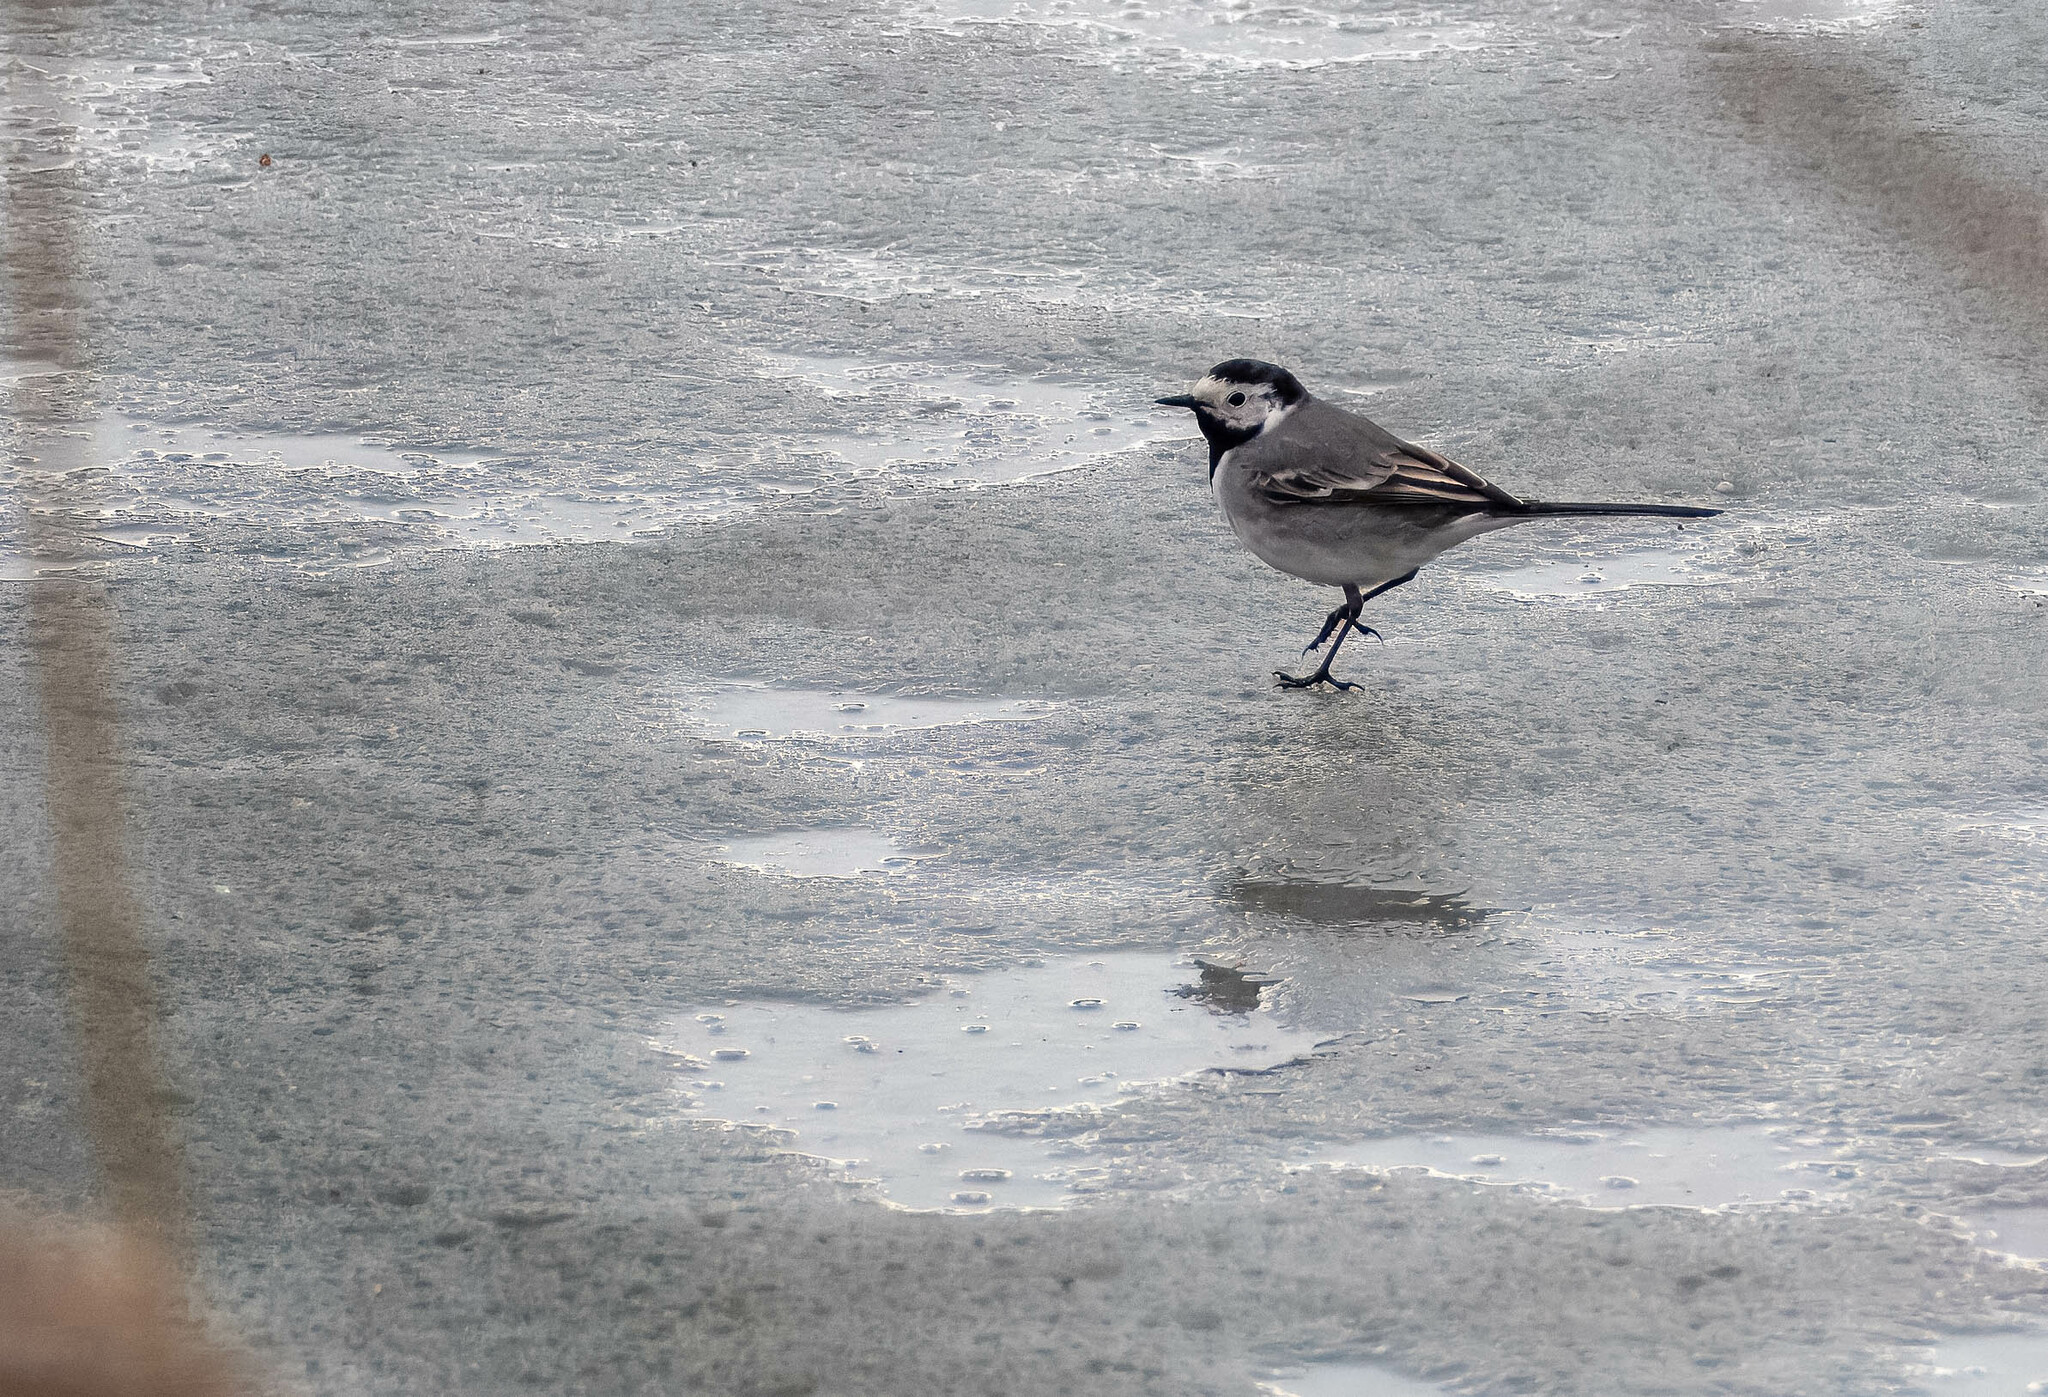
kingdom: Animalia
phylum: Chordata
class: Aves
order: Passeriformes
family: Motacillidae
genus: Motacilla
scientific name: Motacilla alba
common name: White wagtail
